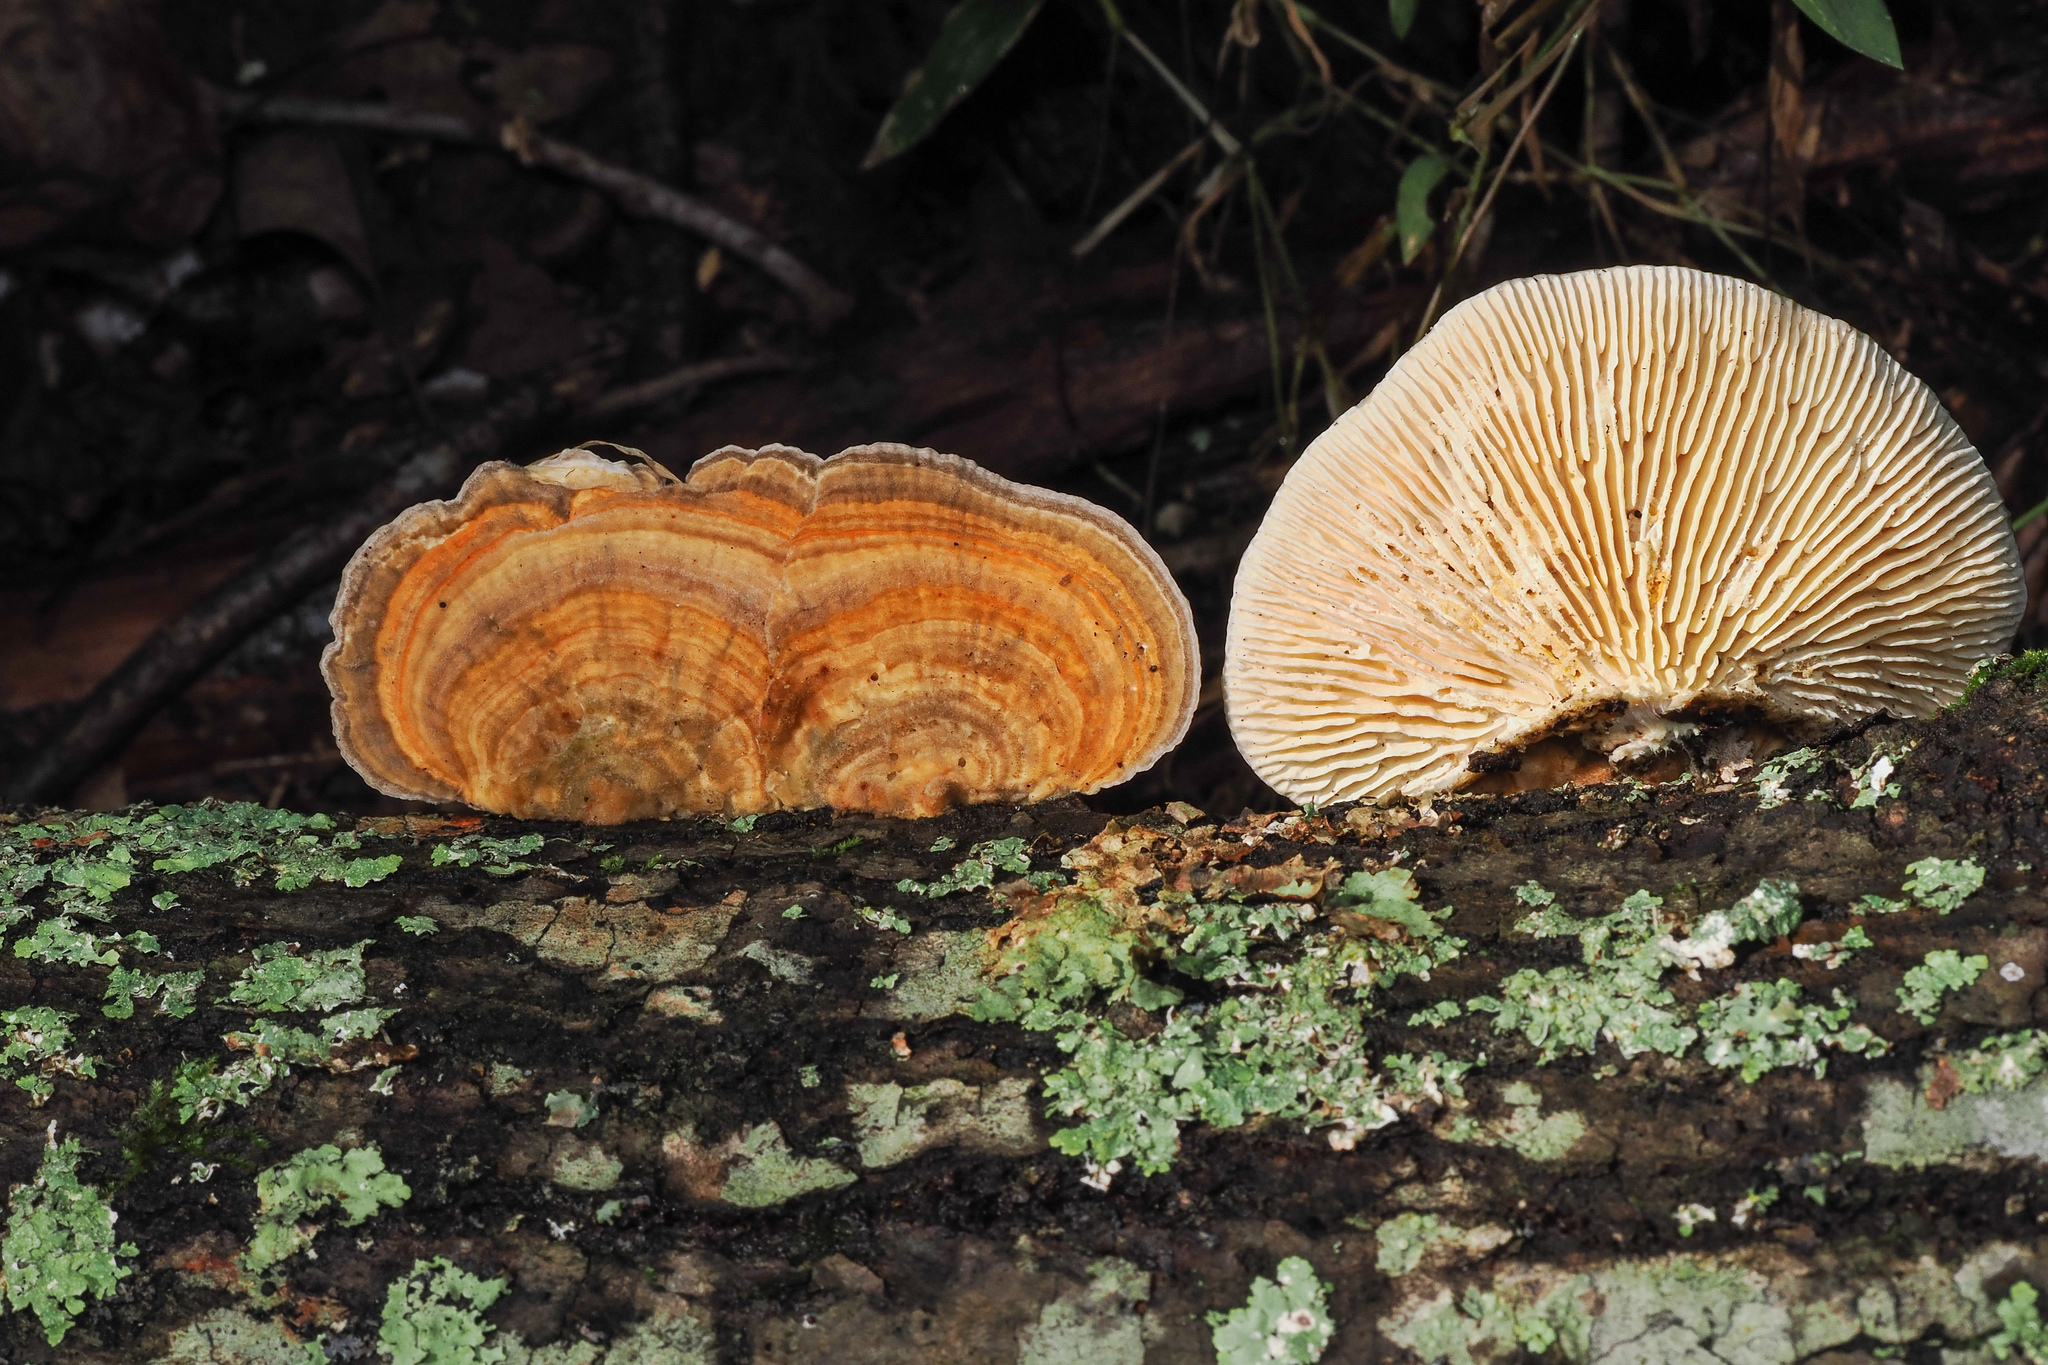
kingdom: Fungi
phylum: Basidiomycota
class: Agaricomycetes
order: Polyporales
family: Polyporaceae
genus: Lenzites
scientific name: Lenzites betulinus
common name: Birch mazegill
